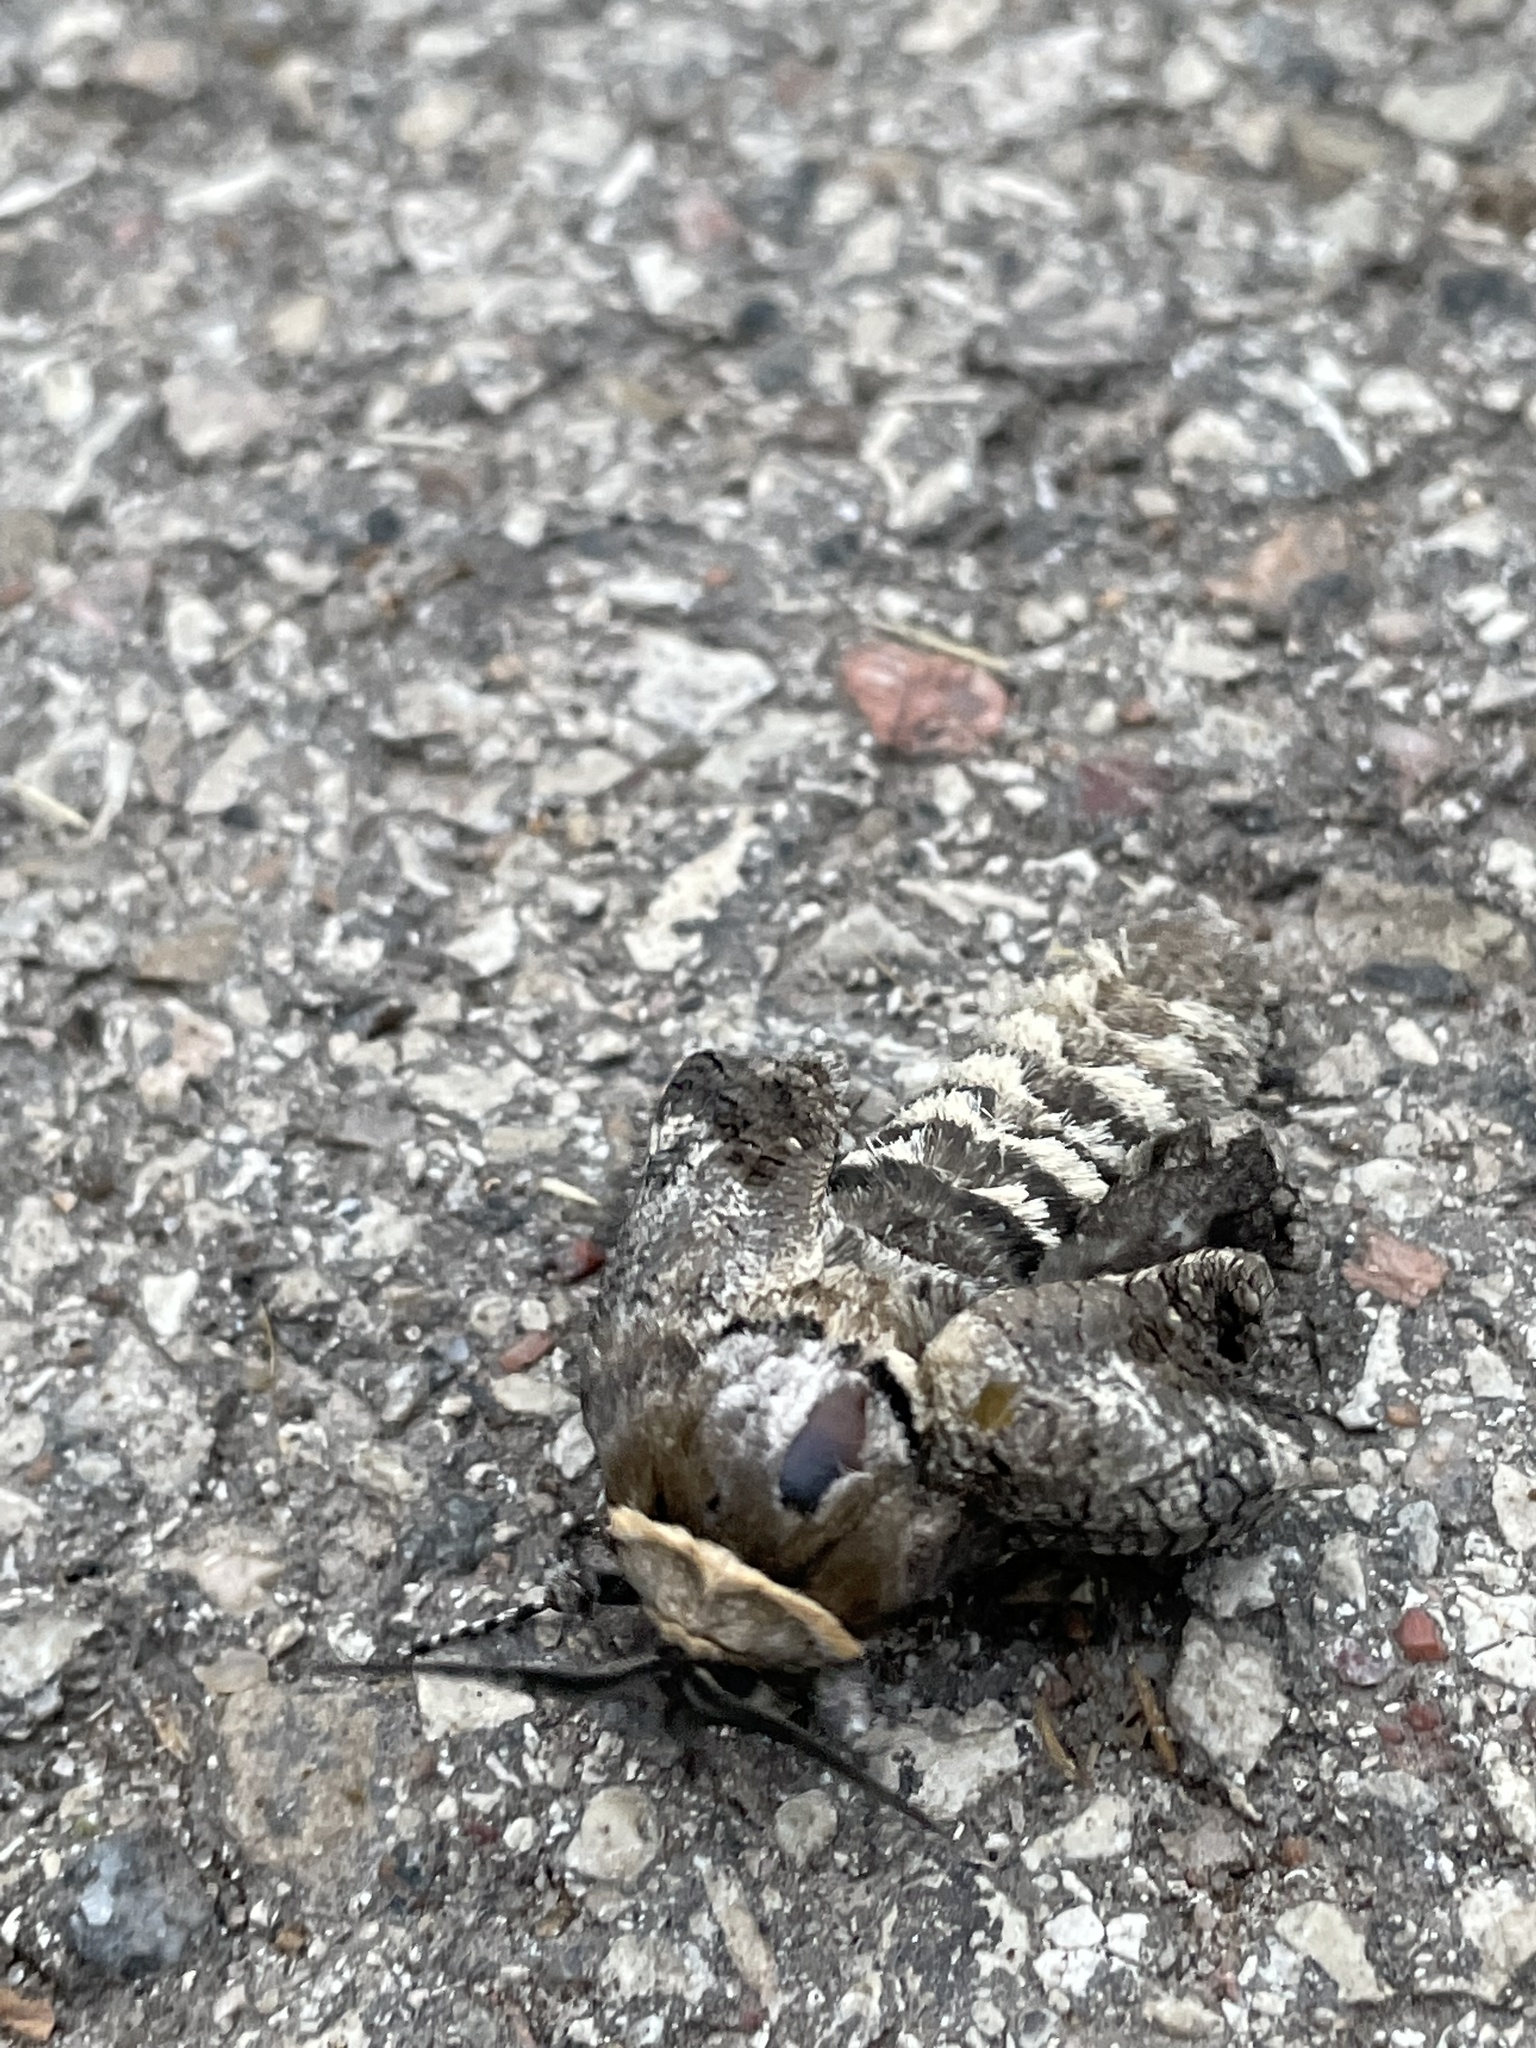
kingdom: Animalia
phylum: Arthropoda
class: Insecta
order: Lepidoptera
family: Cossidae
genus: Cossus
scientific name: Cossus cossus
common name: Goat moth
